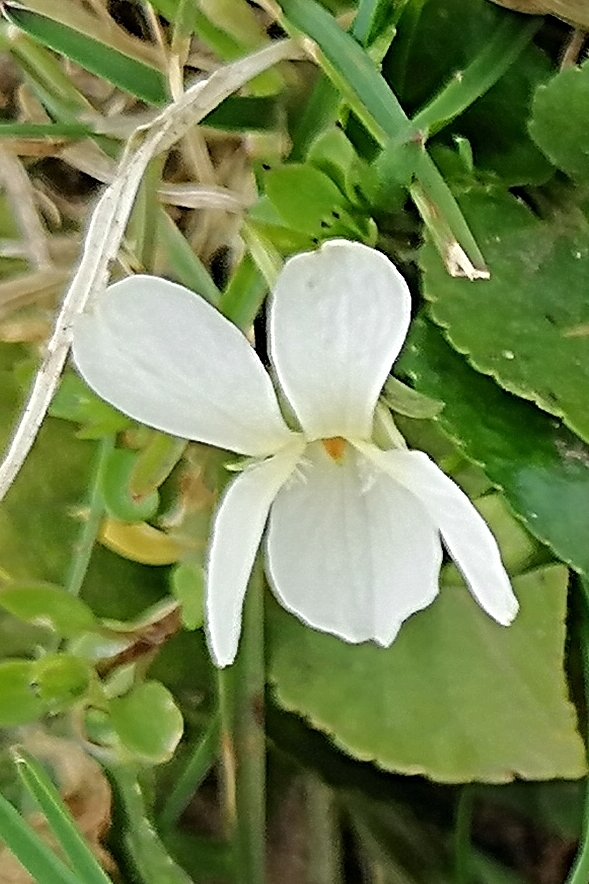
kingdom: Plantae
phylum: Tracheophyta
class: Magnoliopsida
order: Malpighiales
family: Violaceae
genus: Viola
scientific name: Viola odorata
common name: Sweet violet
